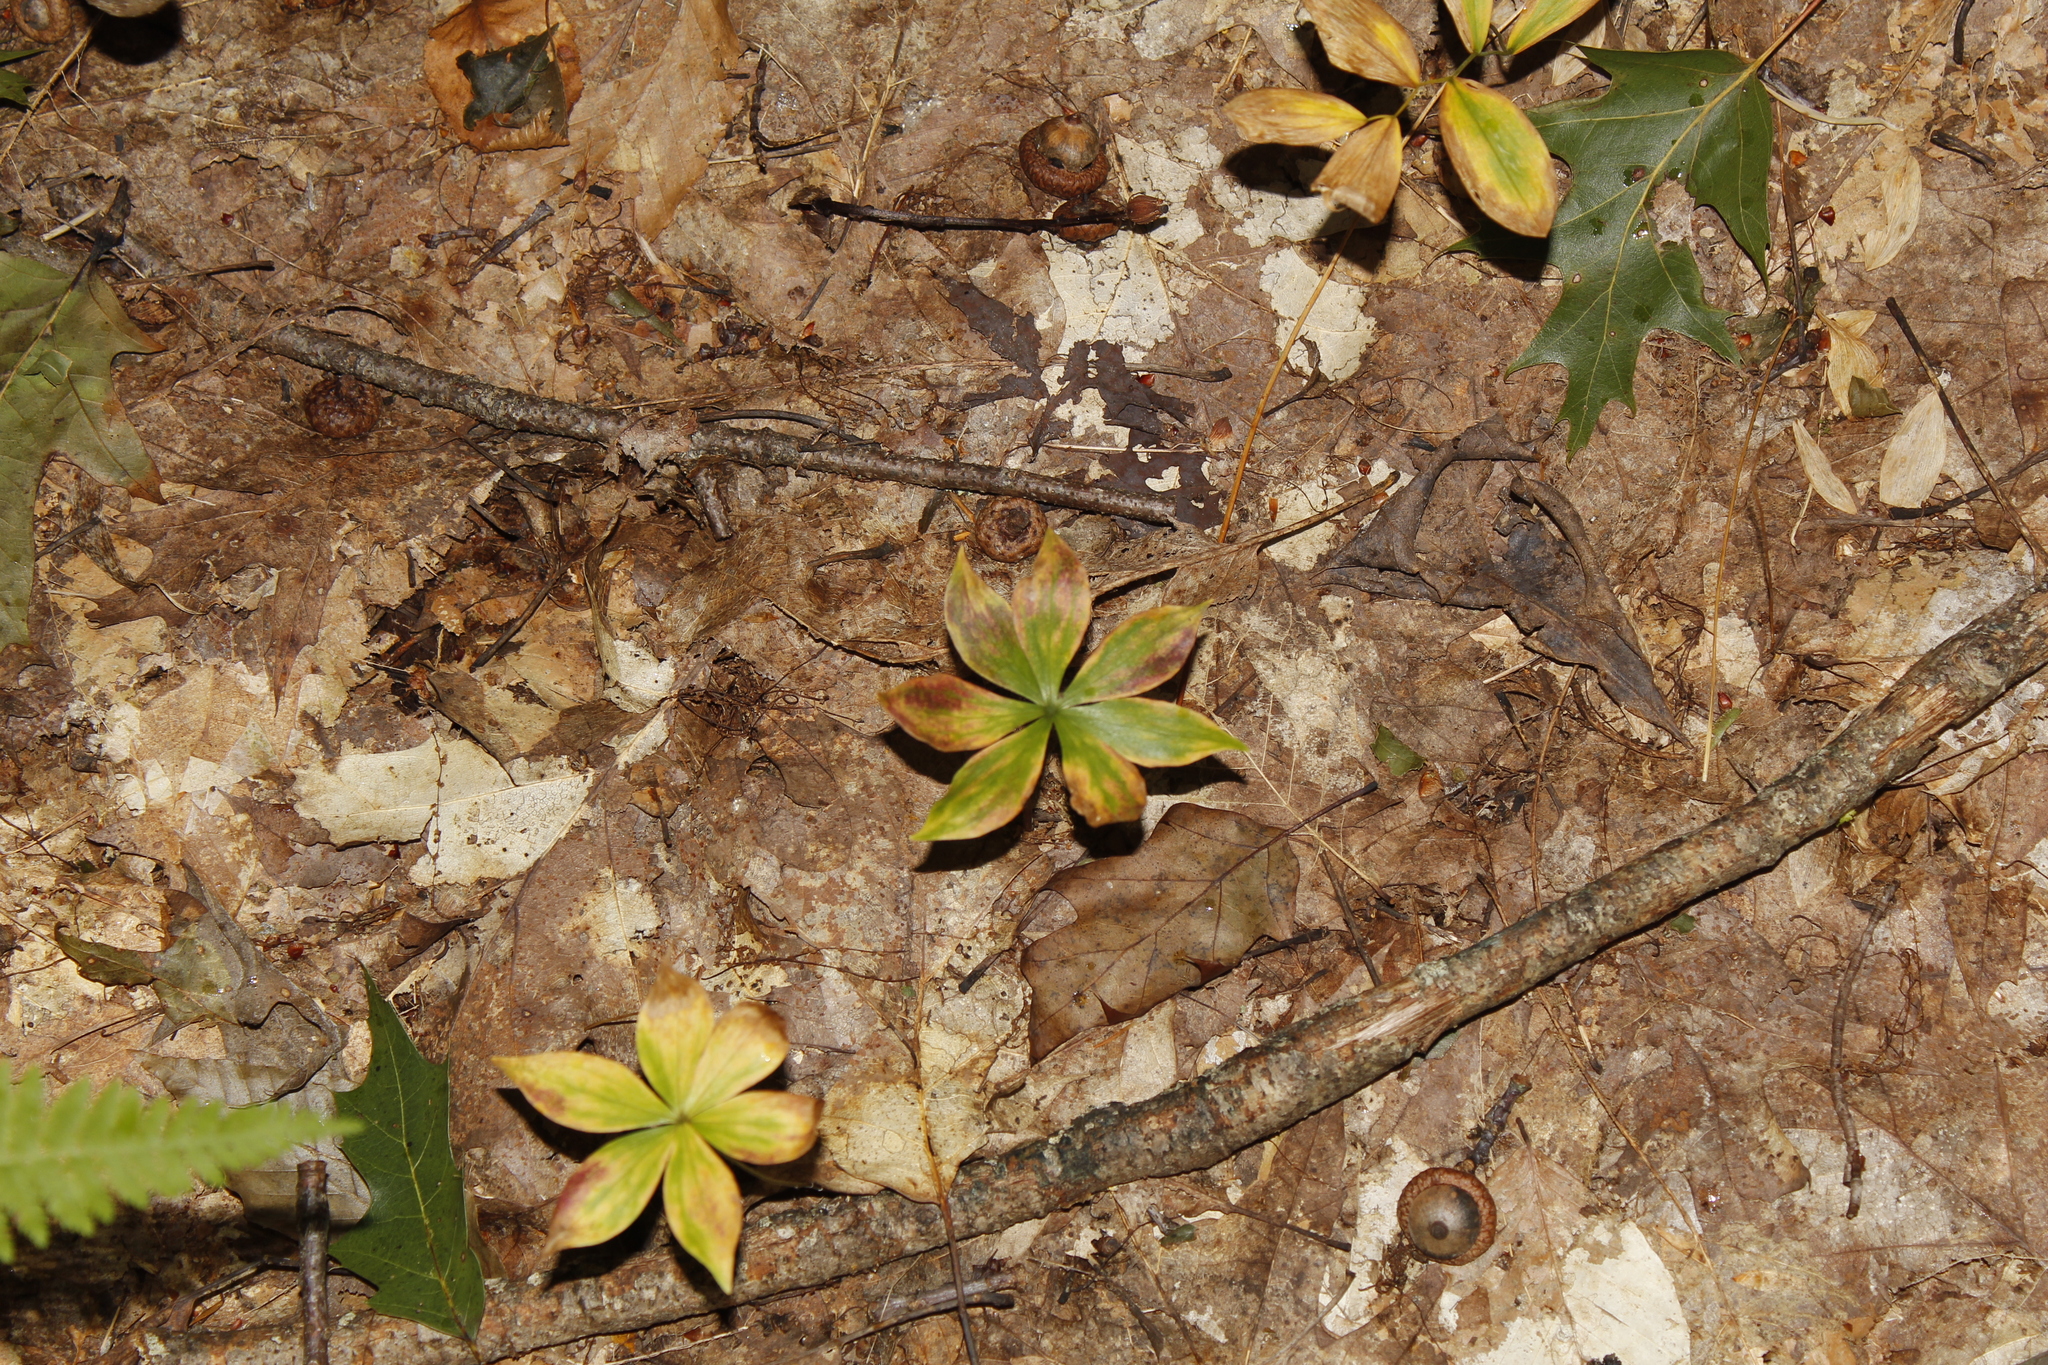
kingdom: Plantae
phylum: Tracheophyta
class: Liliopsida
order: Liliales
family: Liliaceae
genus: Medeola
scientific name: Medeola virginiana
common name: Indian cucumber-root
